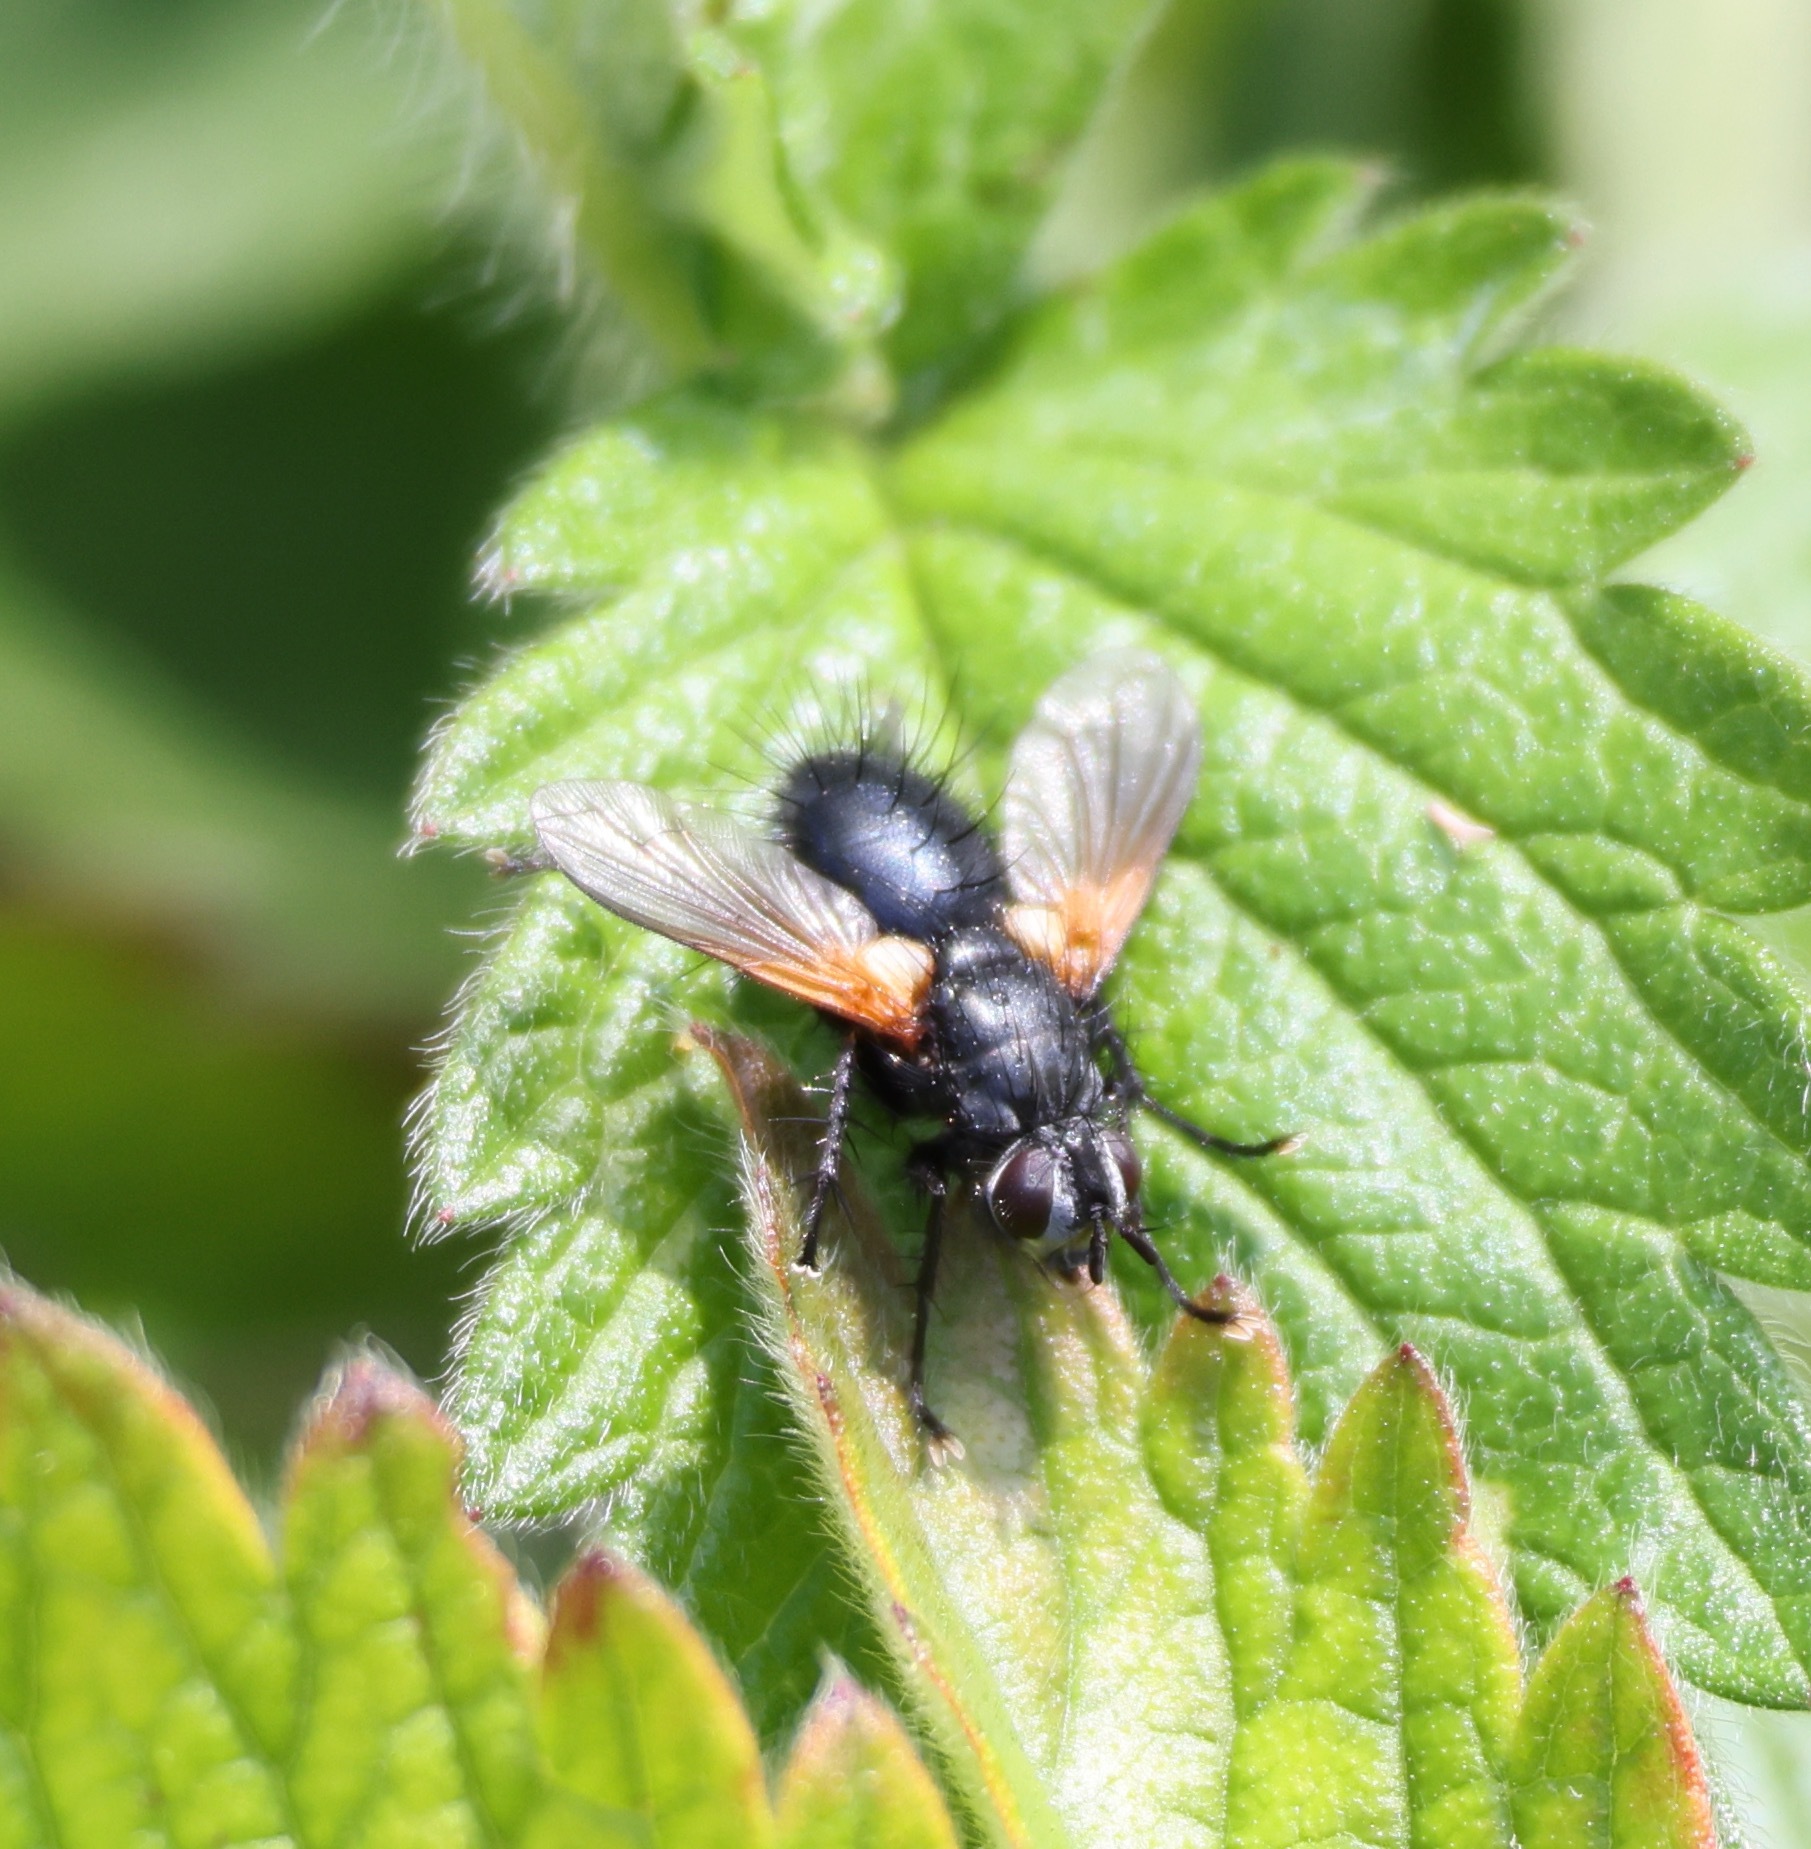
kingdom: Animalia
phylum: Arthropoda
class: Insecta
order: Diptera
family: Tachinidae
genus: Zophomyia
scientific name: Zophomyia temula
